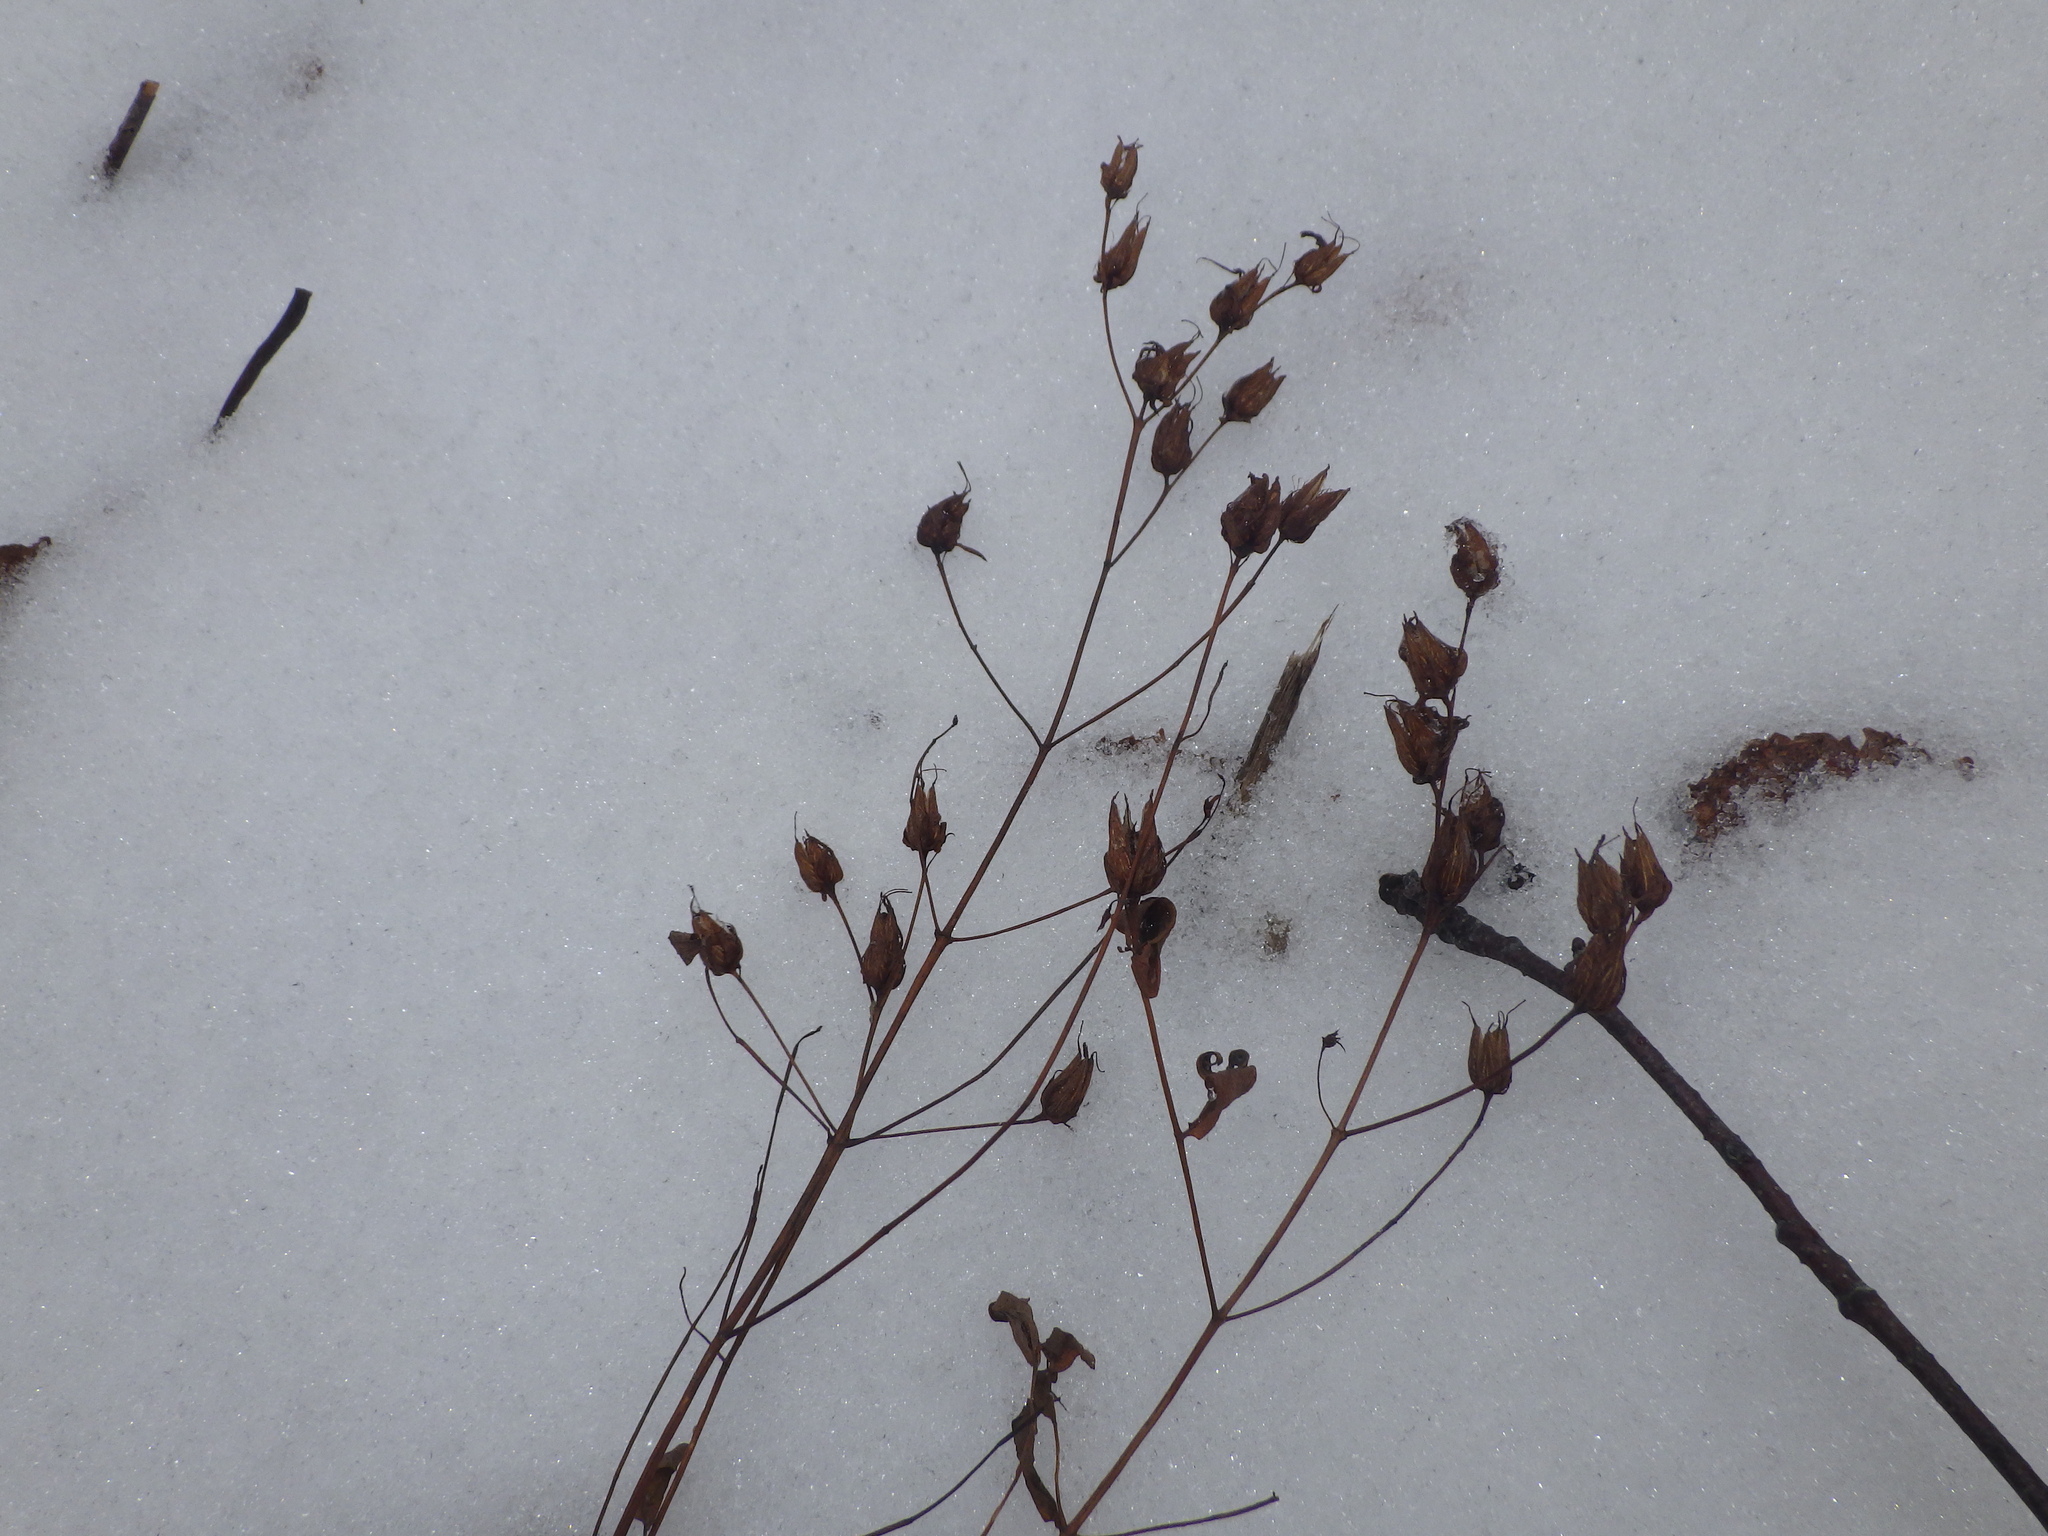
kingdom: Plantae
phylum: Tracheophyta
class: Magnoliopsida
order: Malpighiales
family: Hypericaceae
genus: Hypericum
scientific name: Hypericum perforatum
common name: Common st. johnswort
